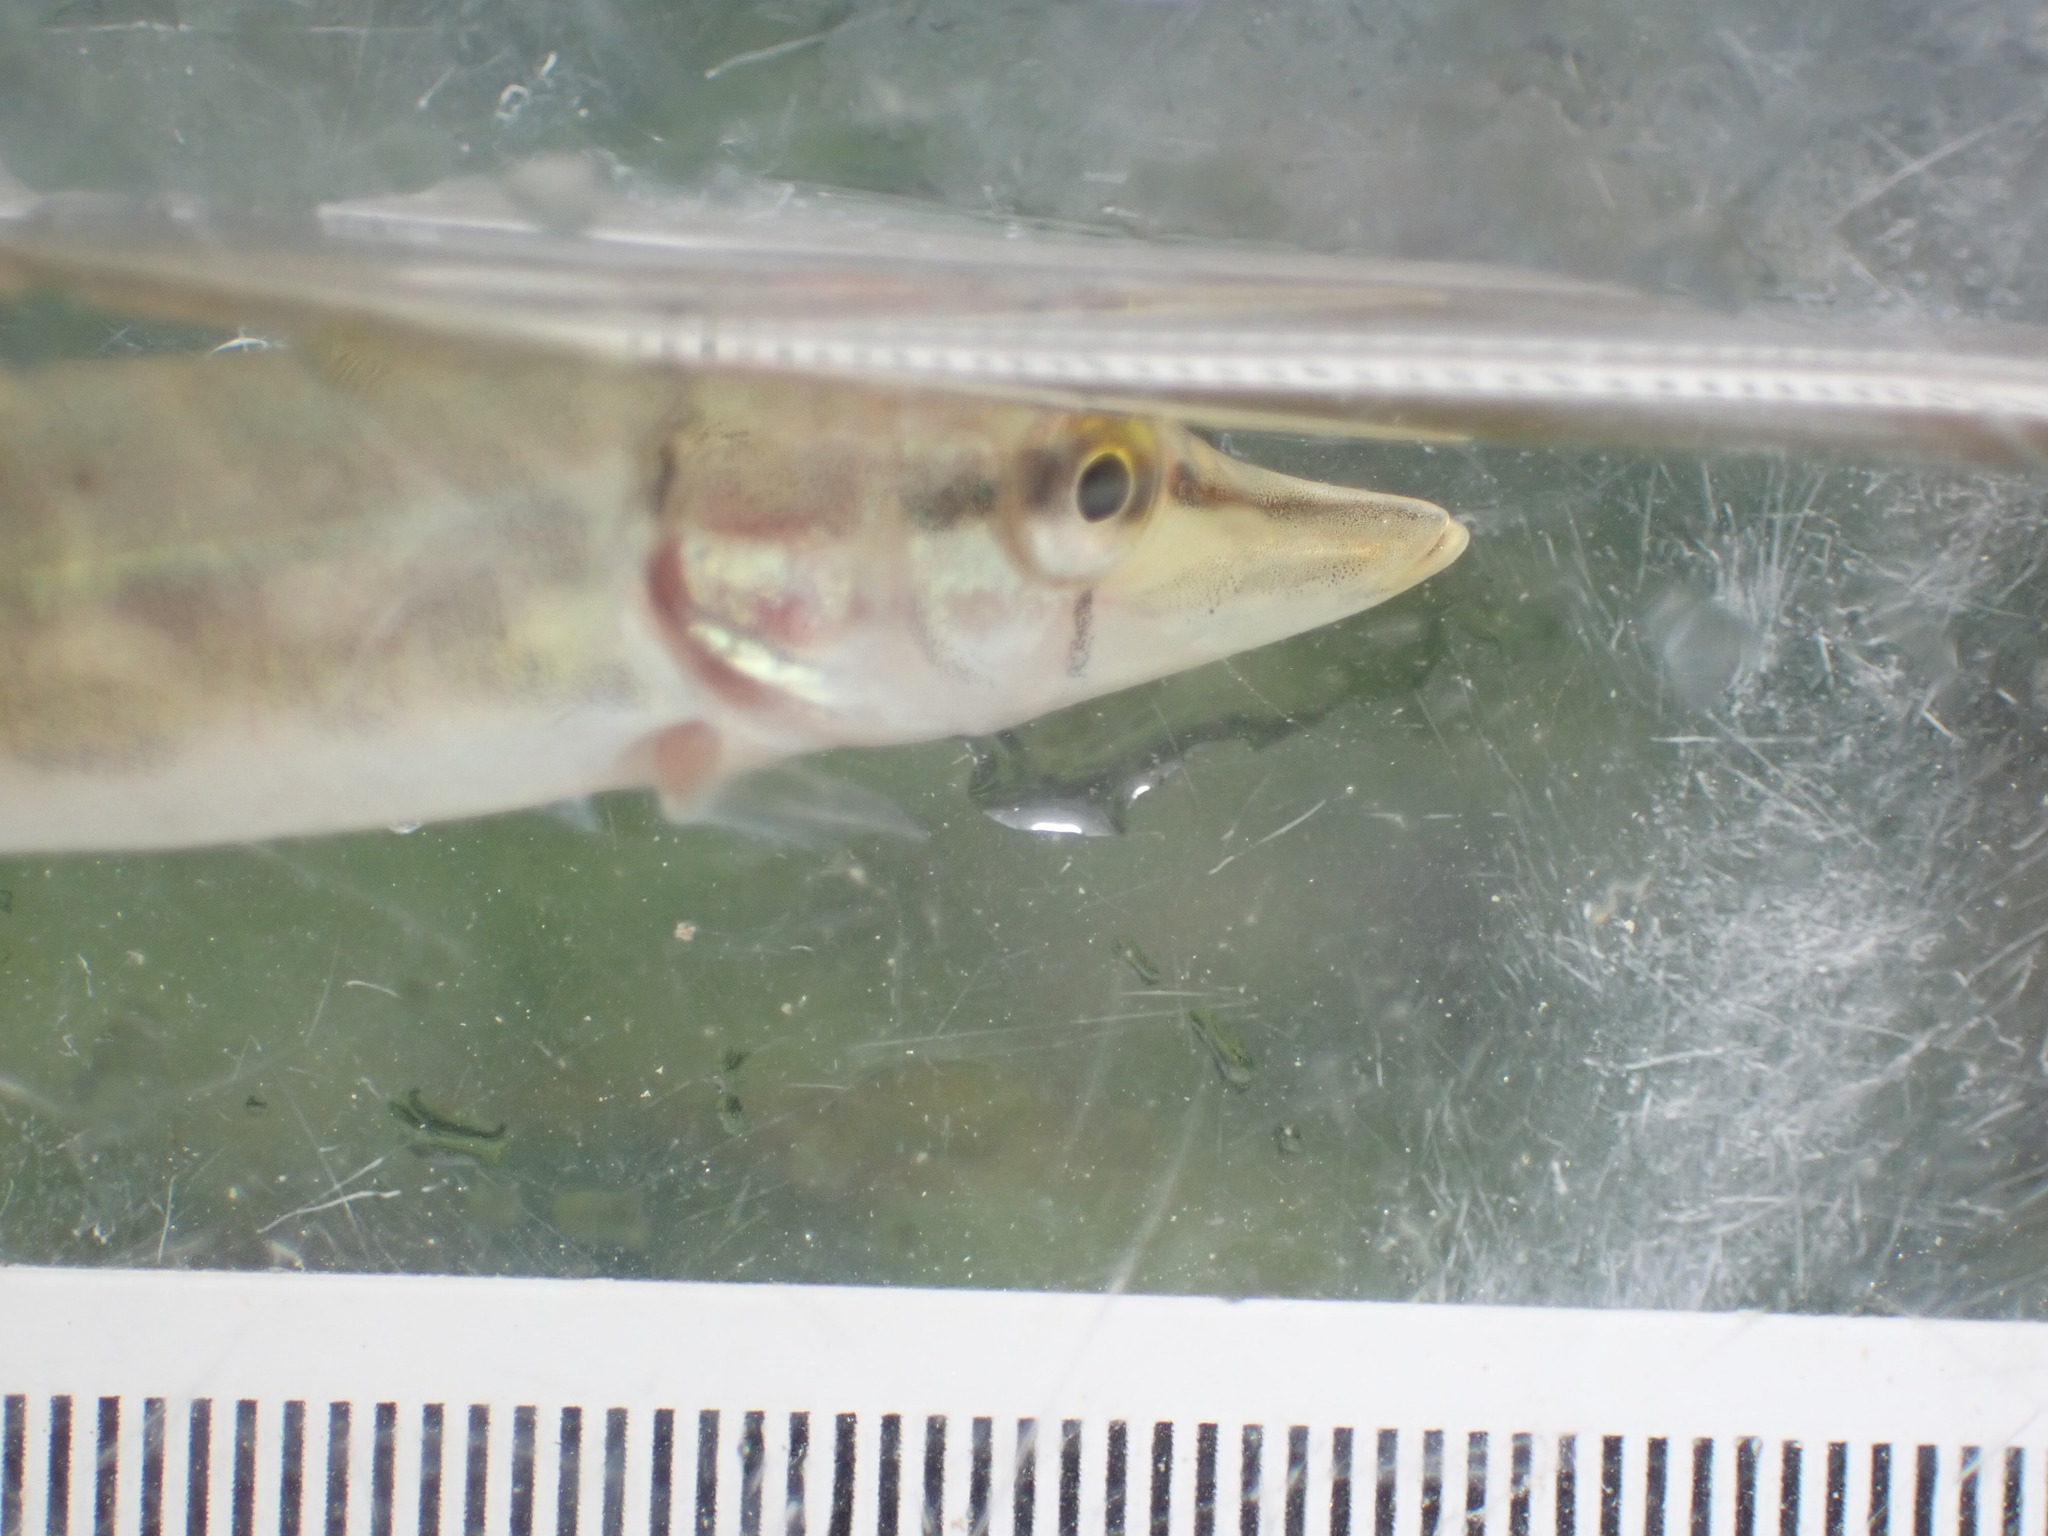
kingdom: Animalia
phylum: Chordata
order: Esociformes
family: Esocidae
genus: Esox
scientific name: Esox lucius
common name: Northern pike
